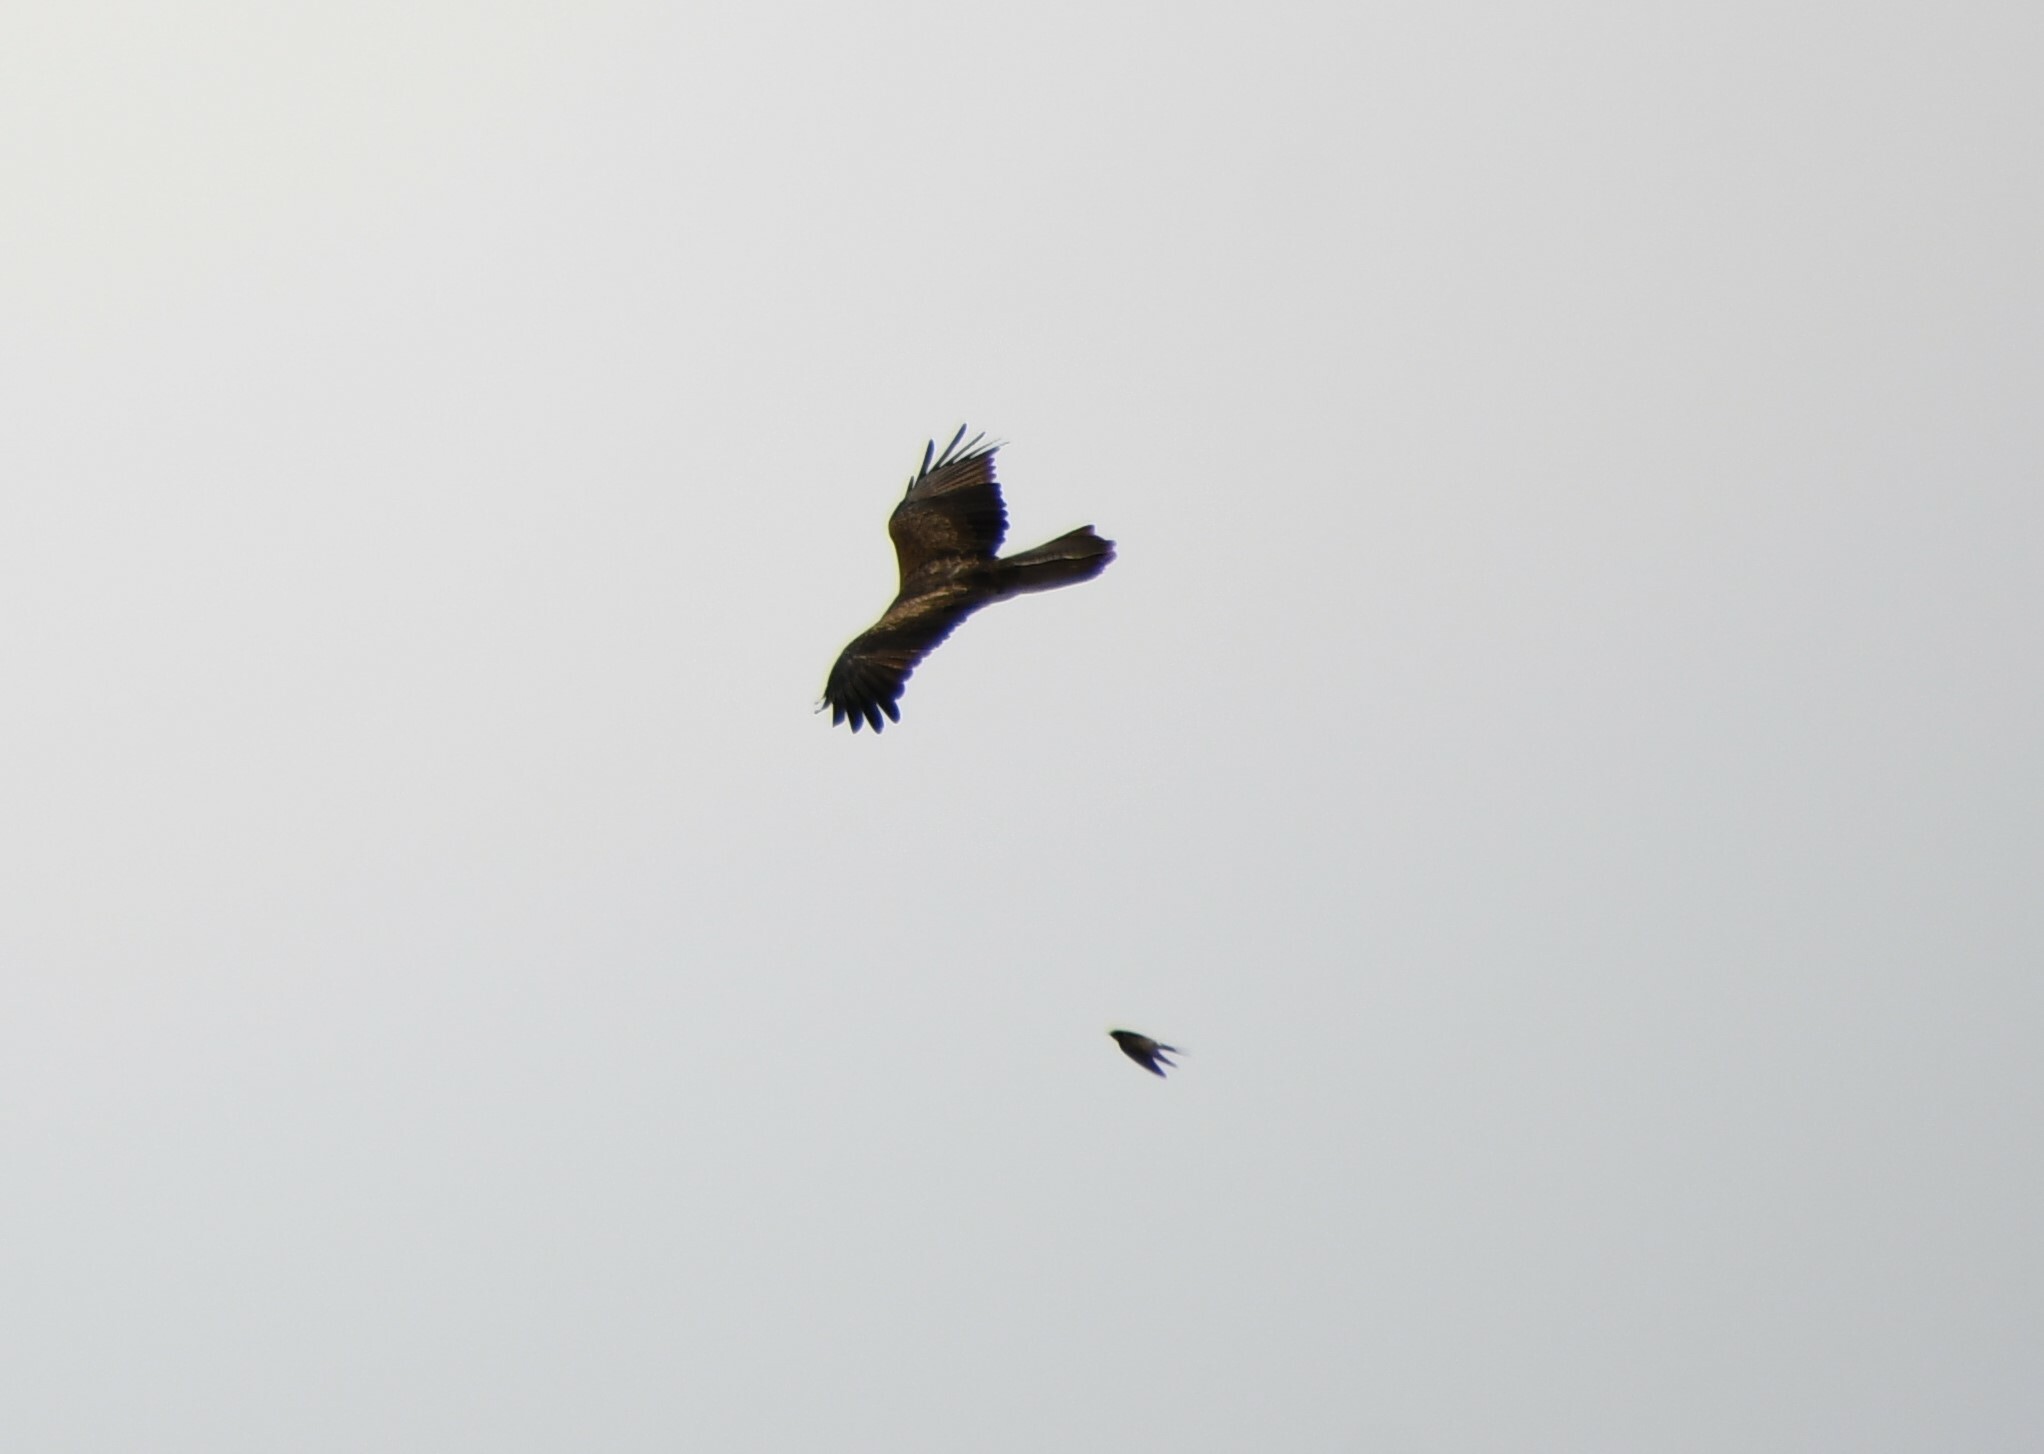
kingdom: Animalia
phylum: Chordata
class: Aves
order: Accipitriformes
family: Accipitridae
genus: Haliastur
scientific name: Haliastur sphenurus
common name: Whistling kite
